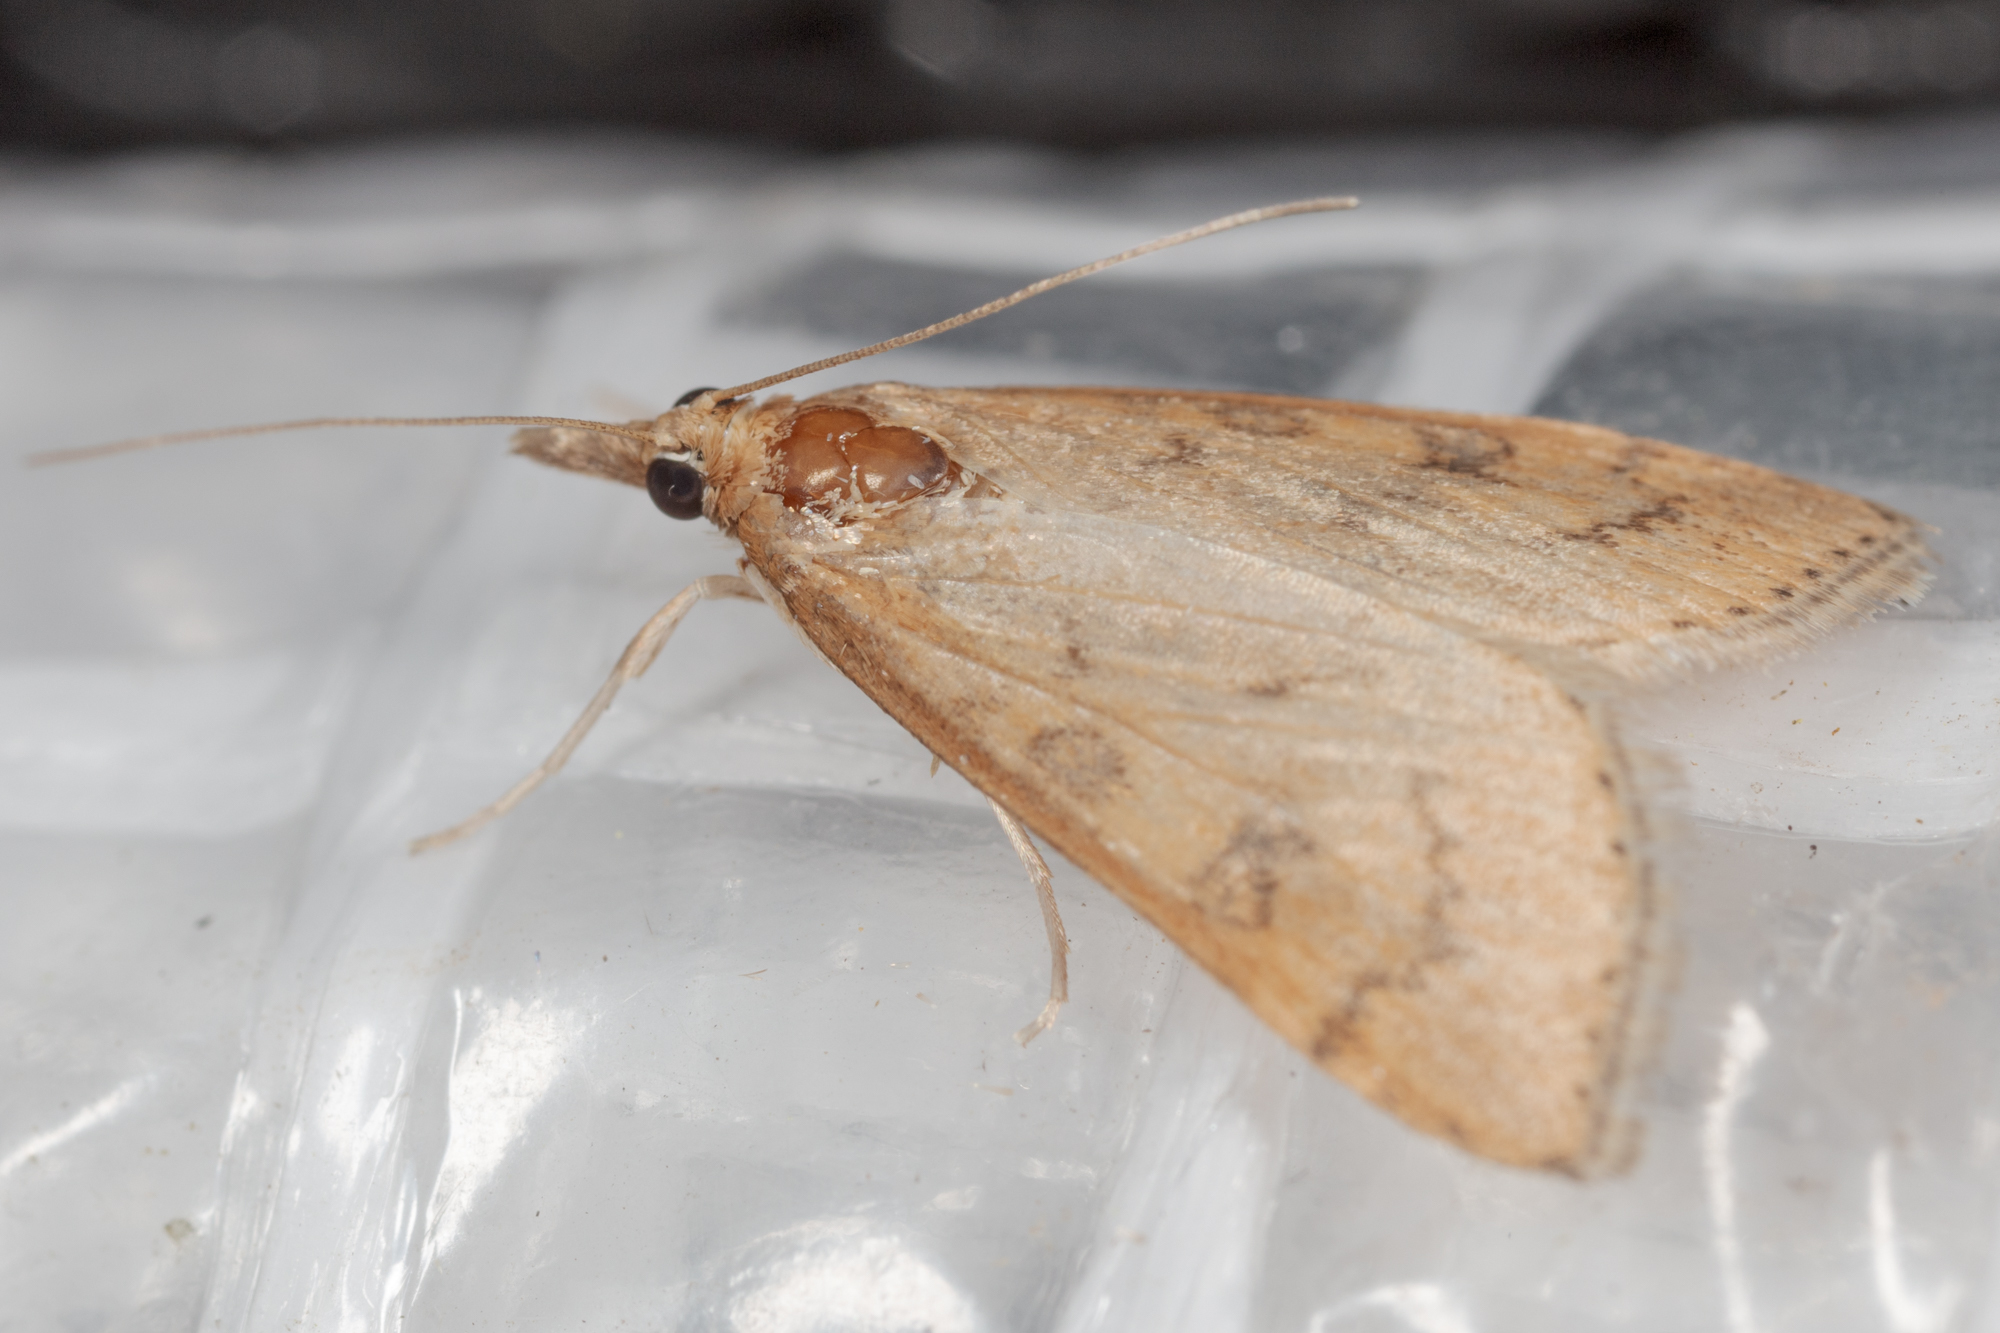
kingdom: Animalia
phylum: Arthropoda
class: Insecta
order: Lepidoptera
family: Crambidae
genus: Udea
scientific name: Udea rubigalis
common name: Celery leaftier moth
